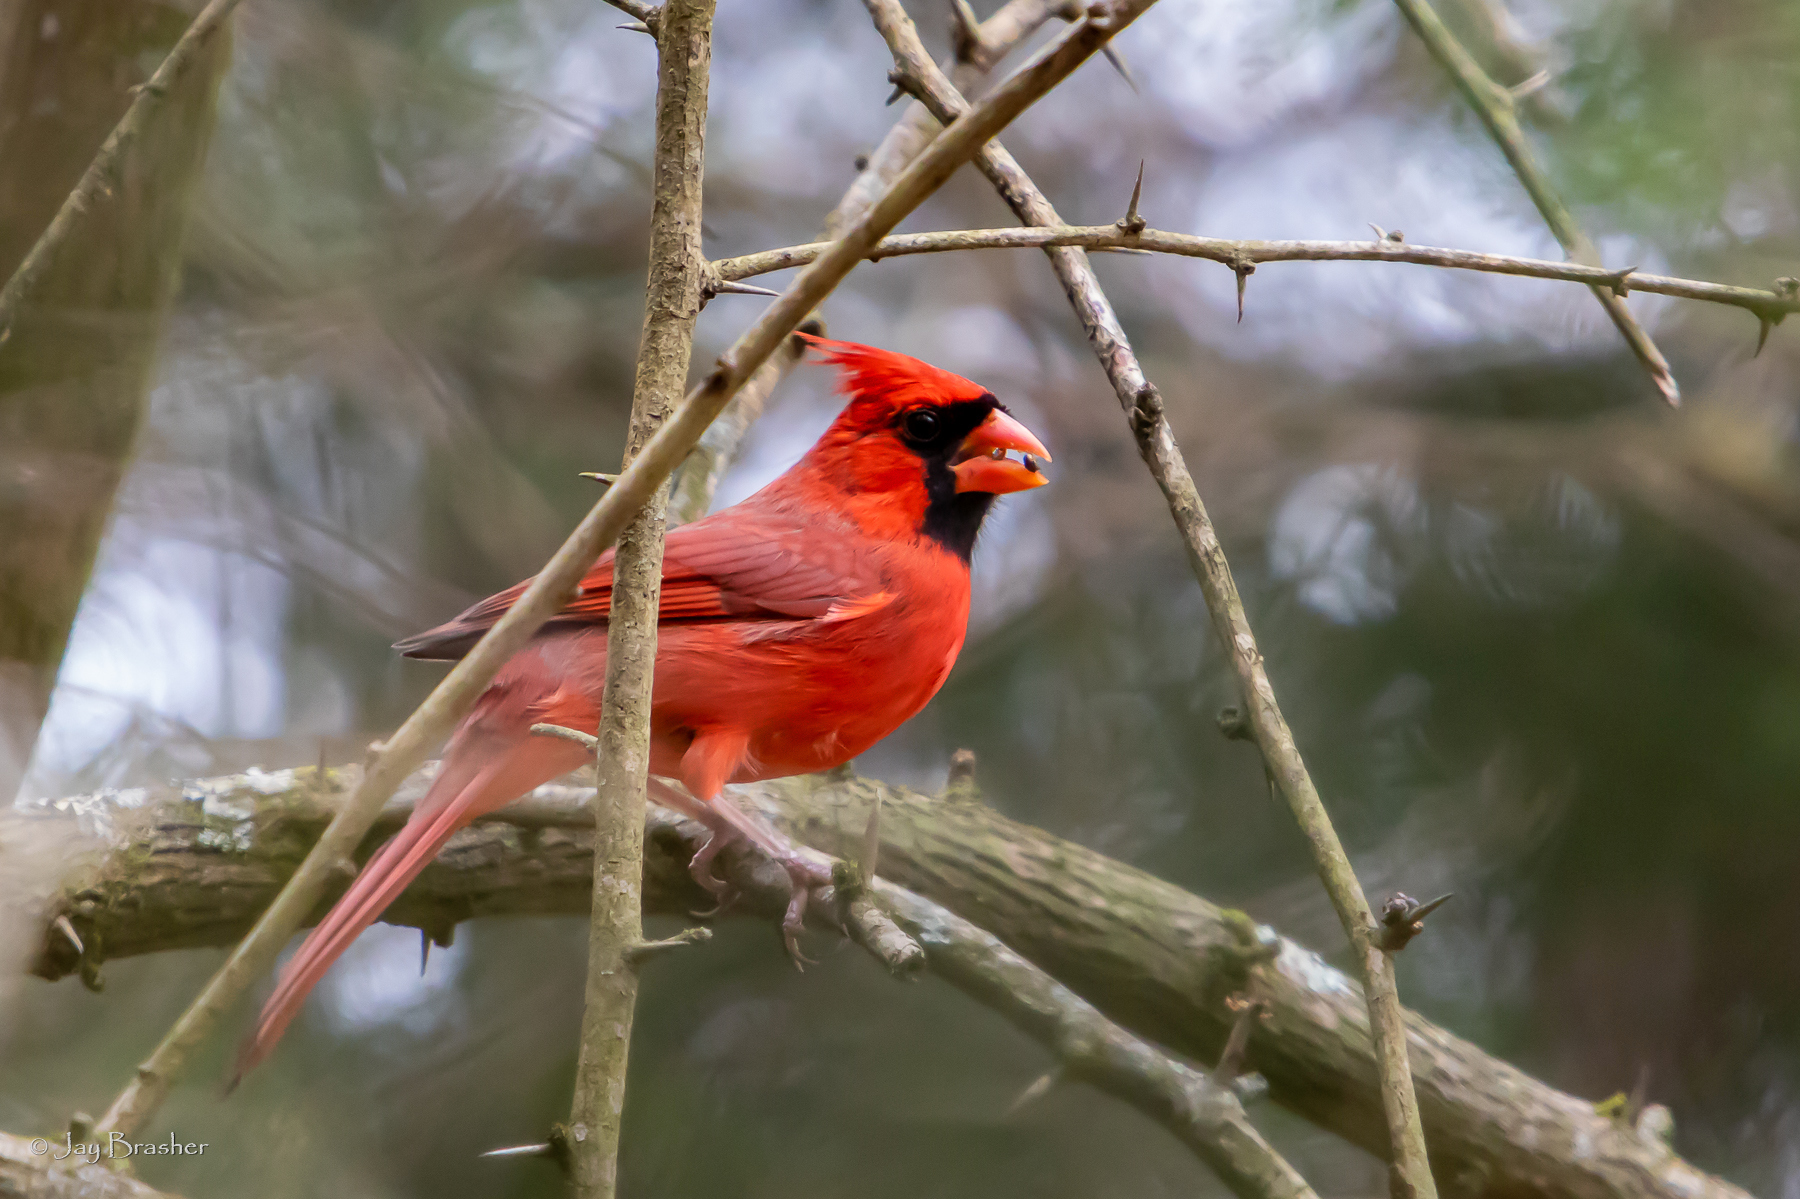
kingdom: Animalia
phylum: Chordata
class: Aves
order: Passeriformes
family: Cardinalidae
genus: Cardinalis
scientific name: Cardinalis cardinalis
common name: Northern cardinal
